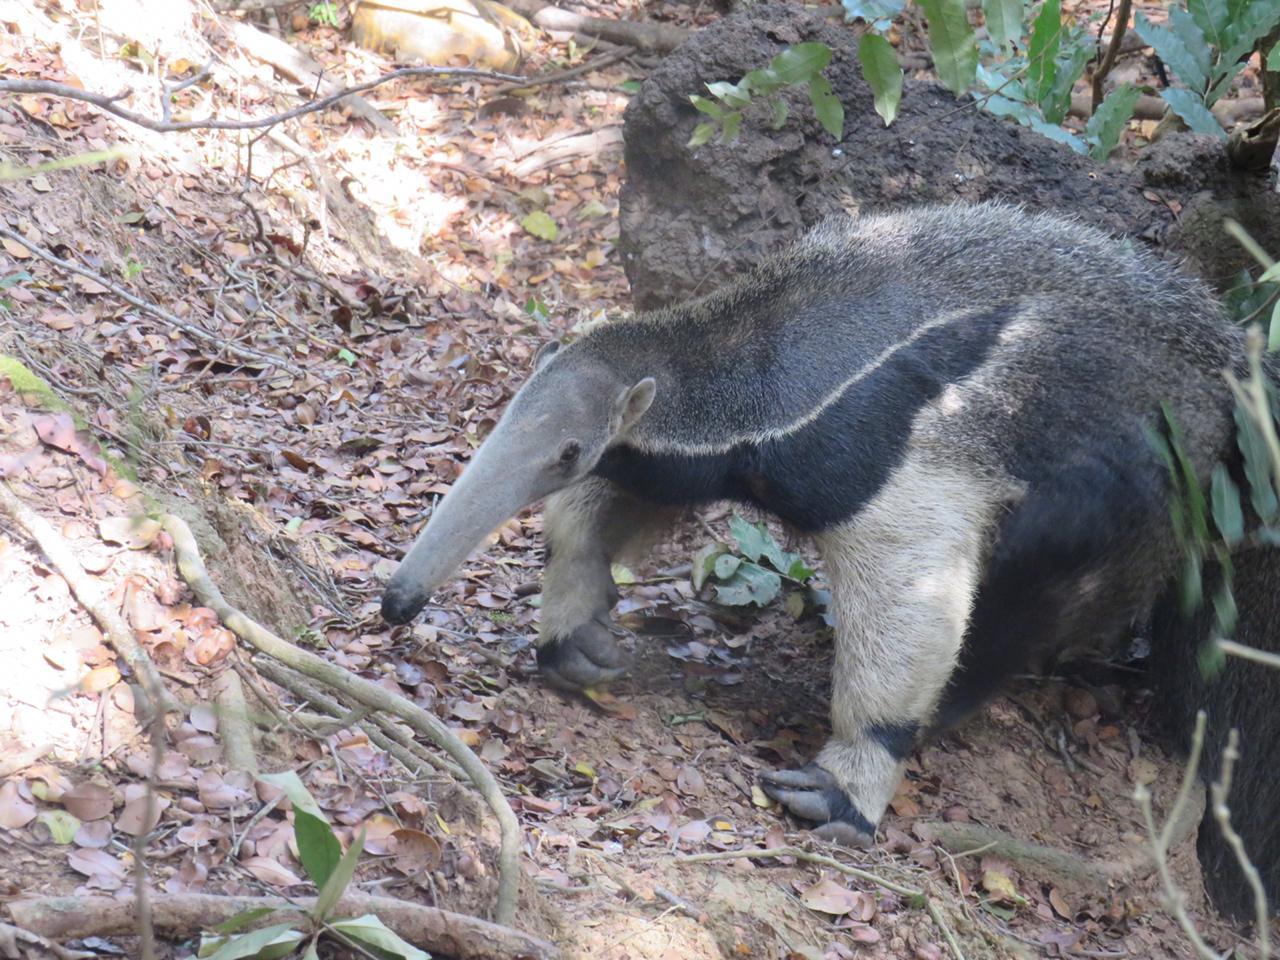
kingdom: Animalia
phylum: Chordata
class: Mammalia
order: Pilosa
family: Myrmecophagidae
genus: Myrmecophaga
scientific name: Myrmecophaga tridactyla
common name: Giant anteater
